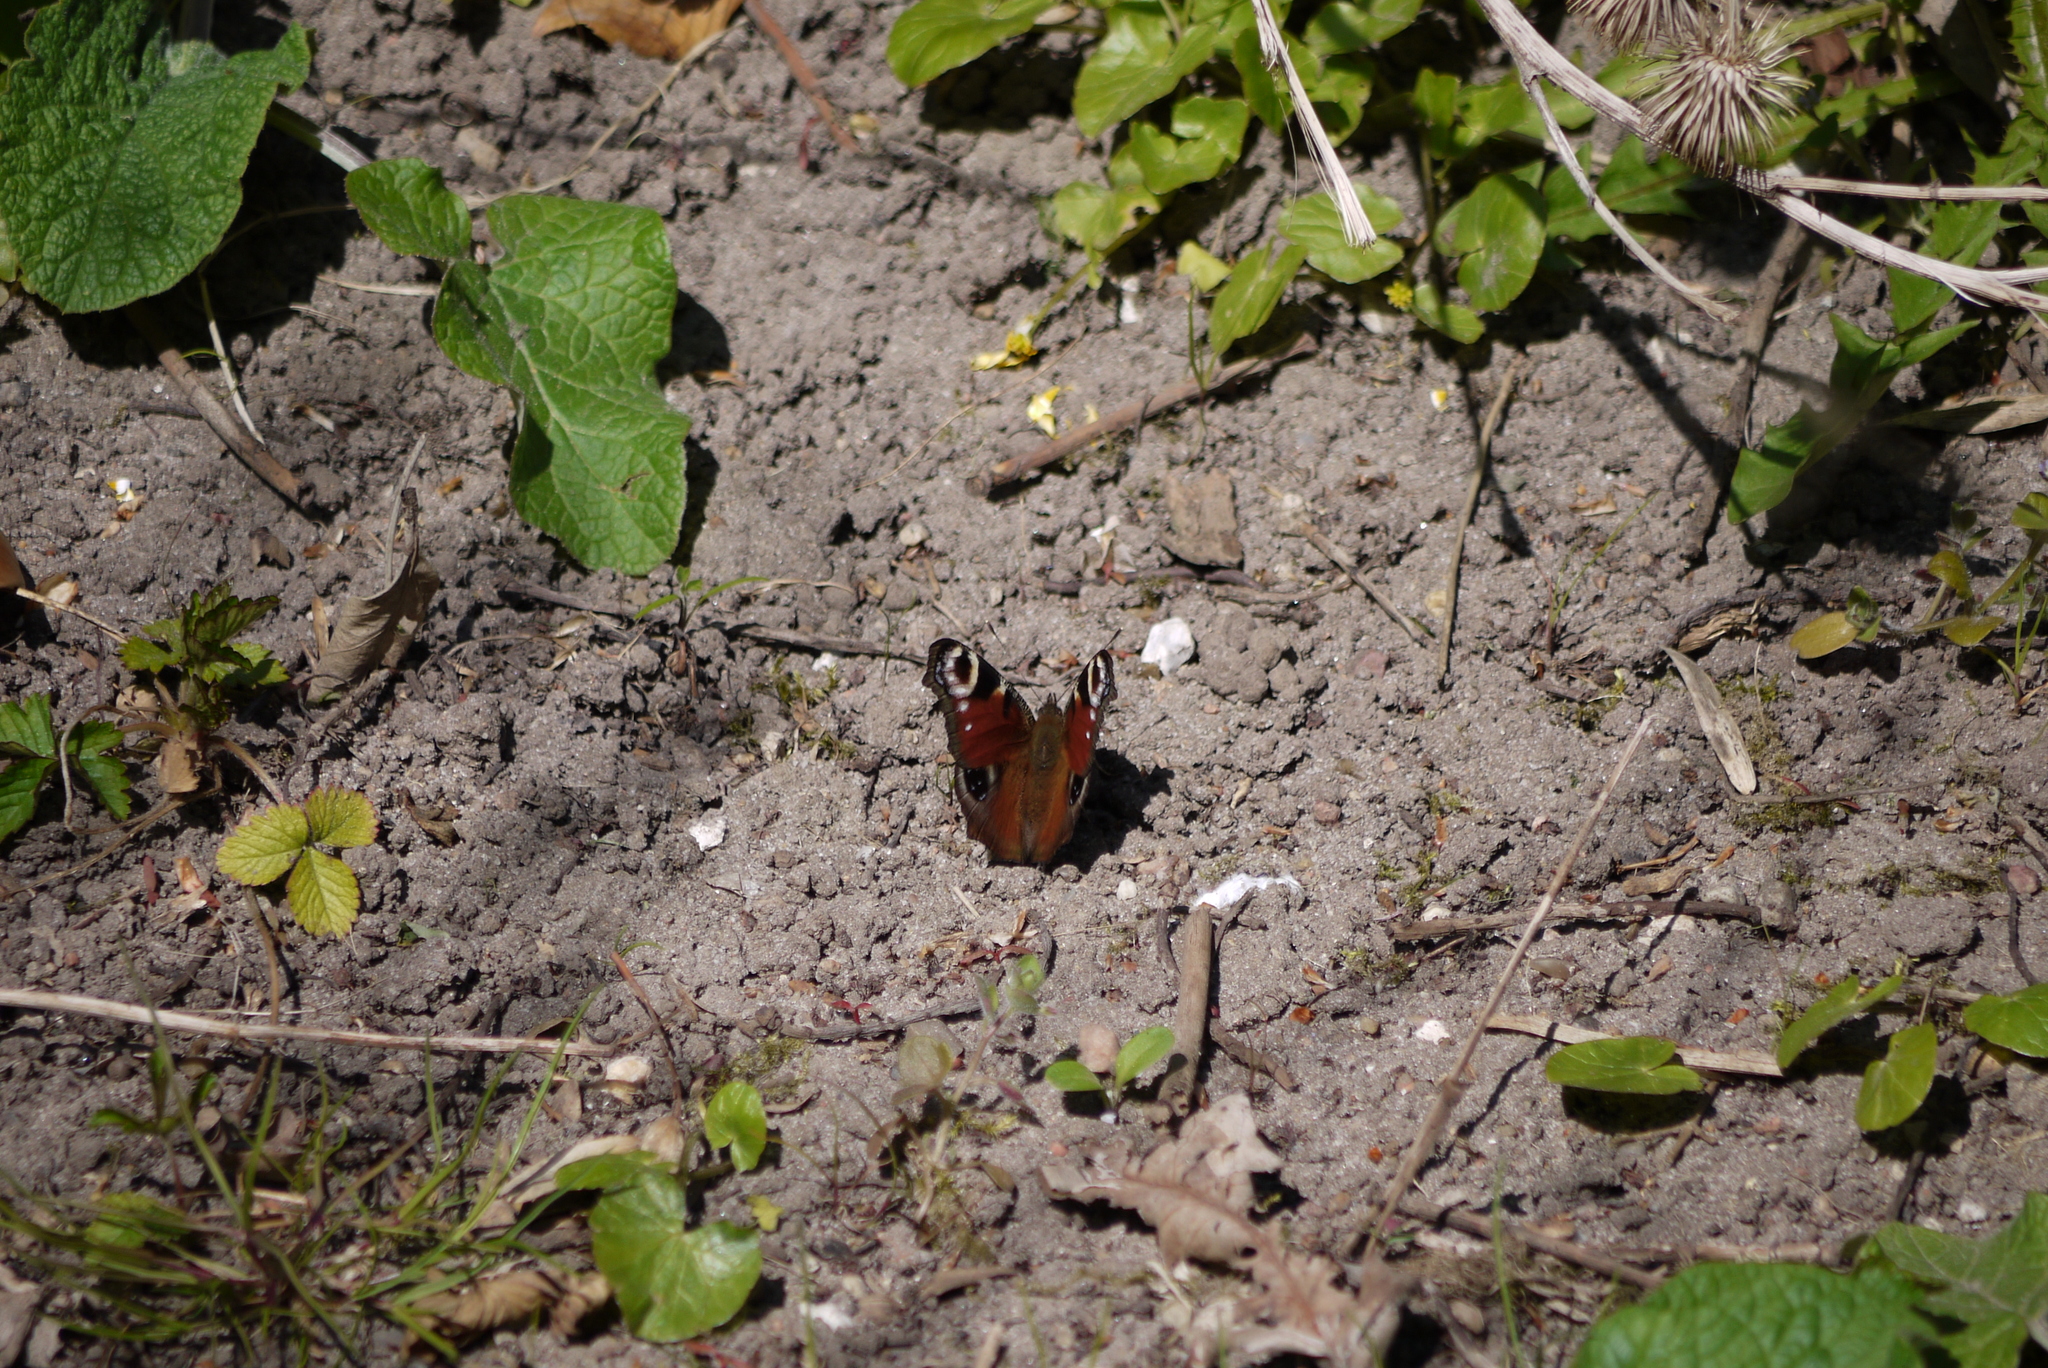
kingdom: Animalia
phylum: Arthropoda
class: Insecta
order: Lepidoptera
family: Nymphalidae
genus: Aglais
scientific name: Aglais io
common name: Peacock
